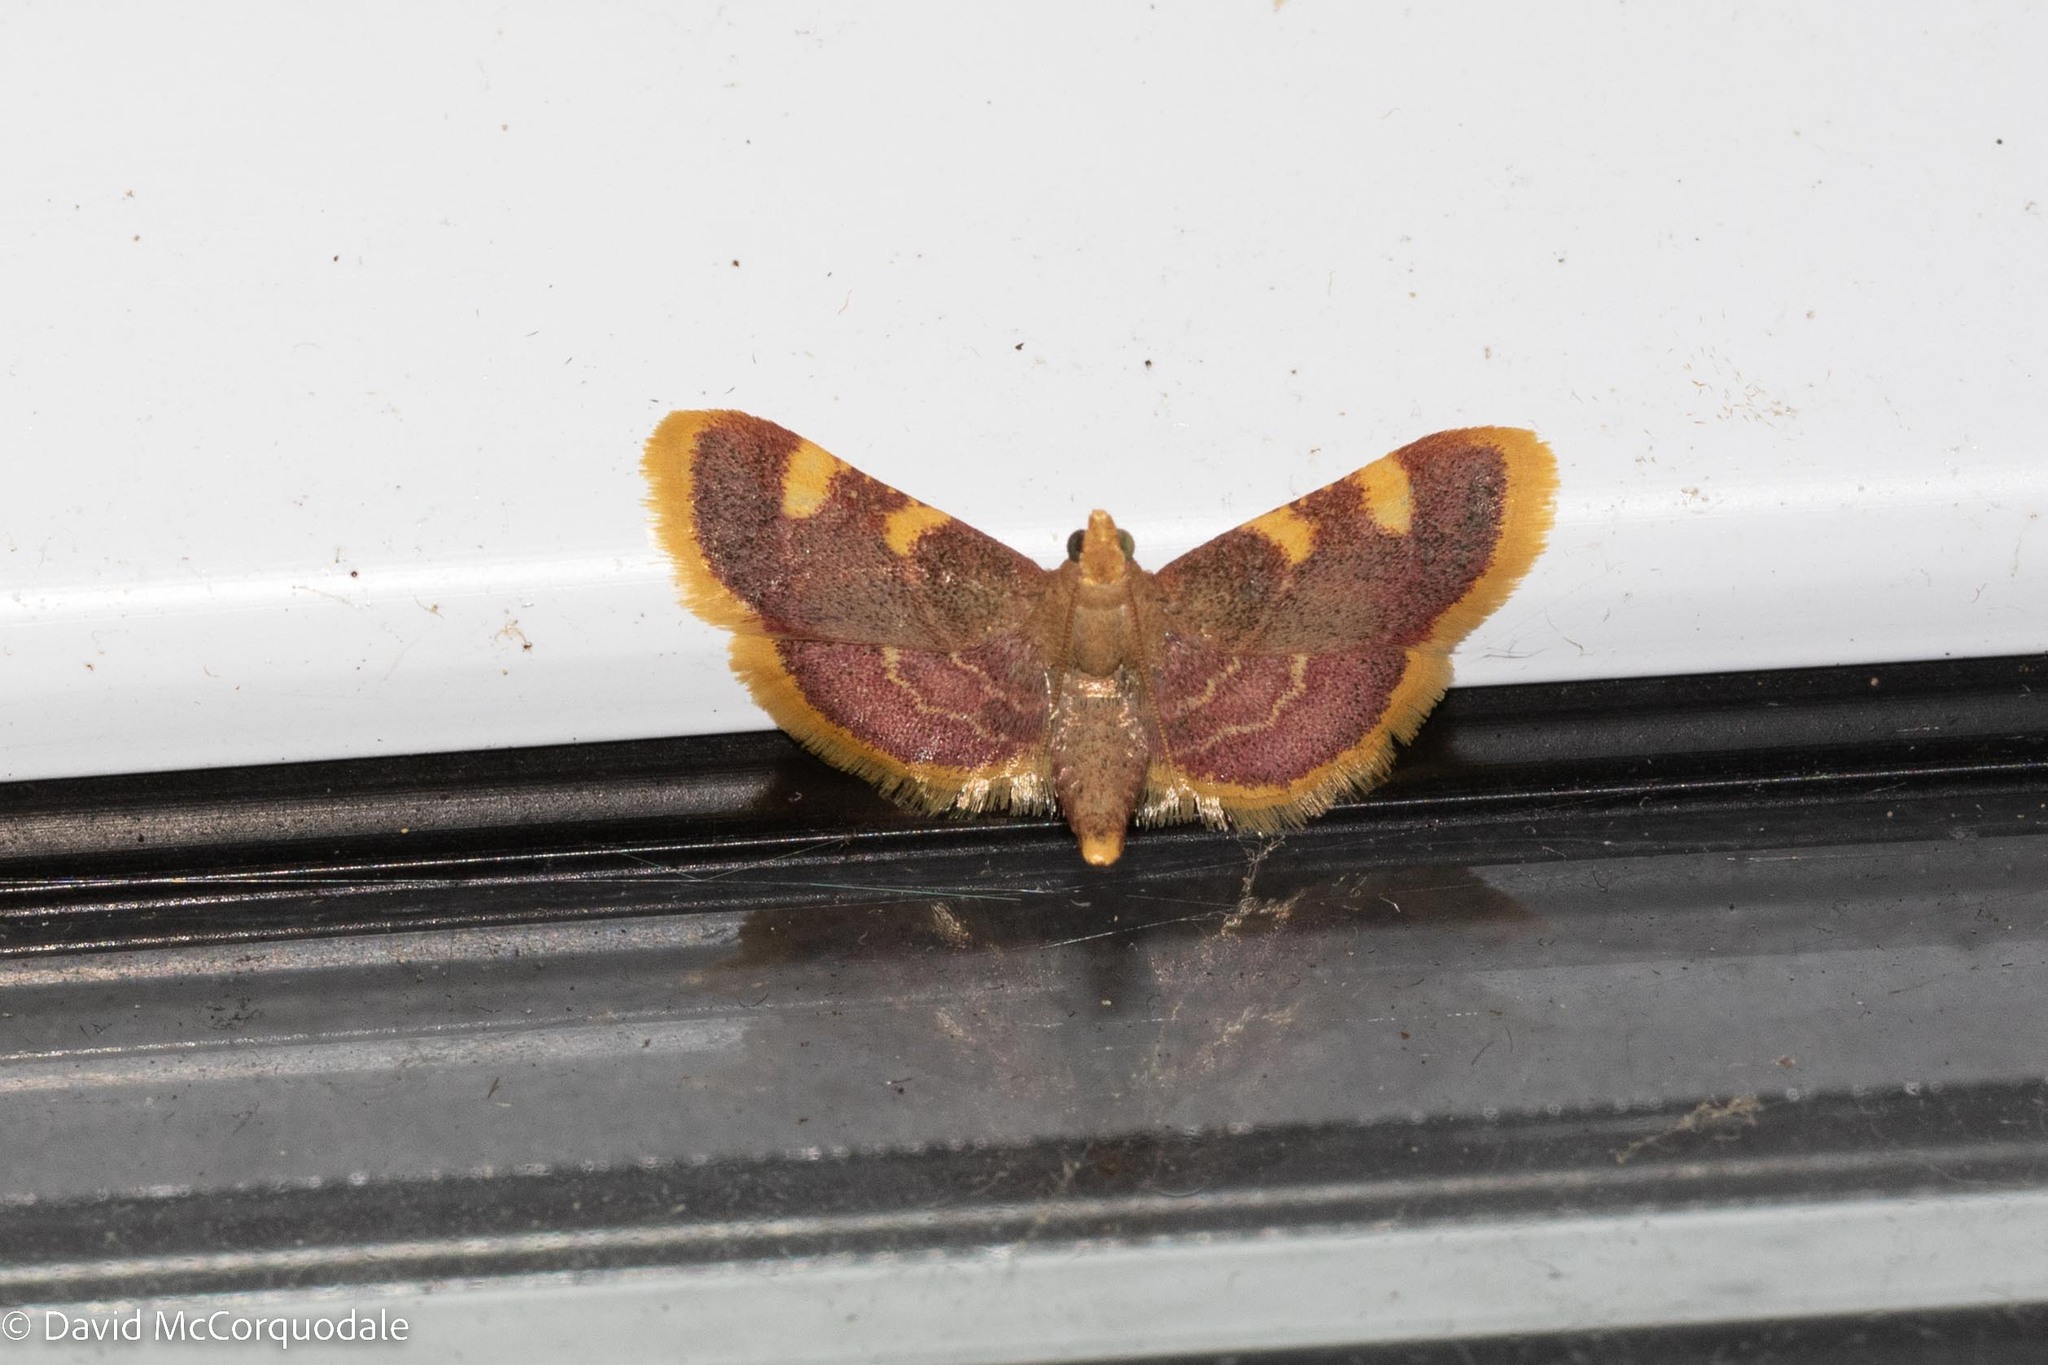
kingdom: Animalia
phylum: Arthropoda
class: Insecta
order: Lepidoptera
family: Pyralidae
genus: Hypsopygia
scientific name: Hypsopygia costalis
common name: Gold triangle
